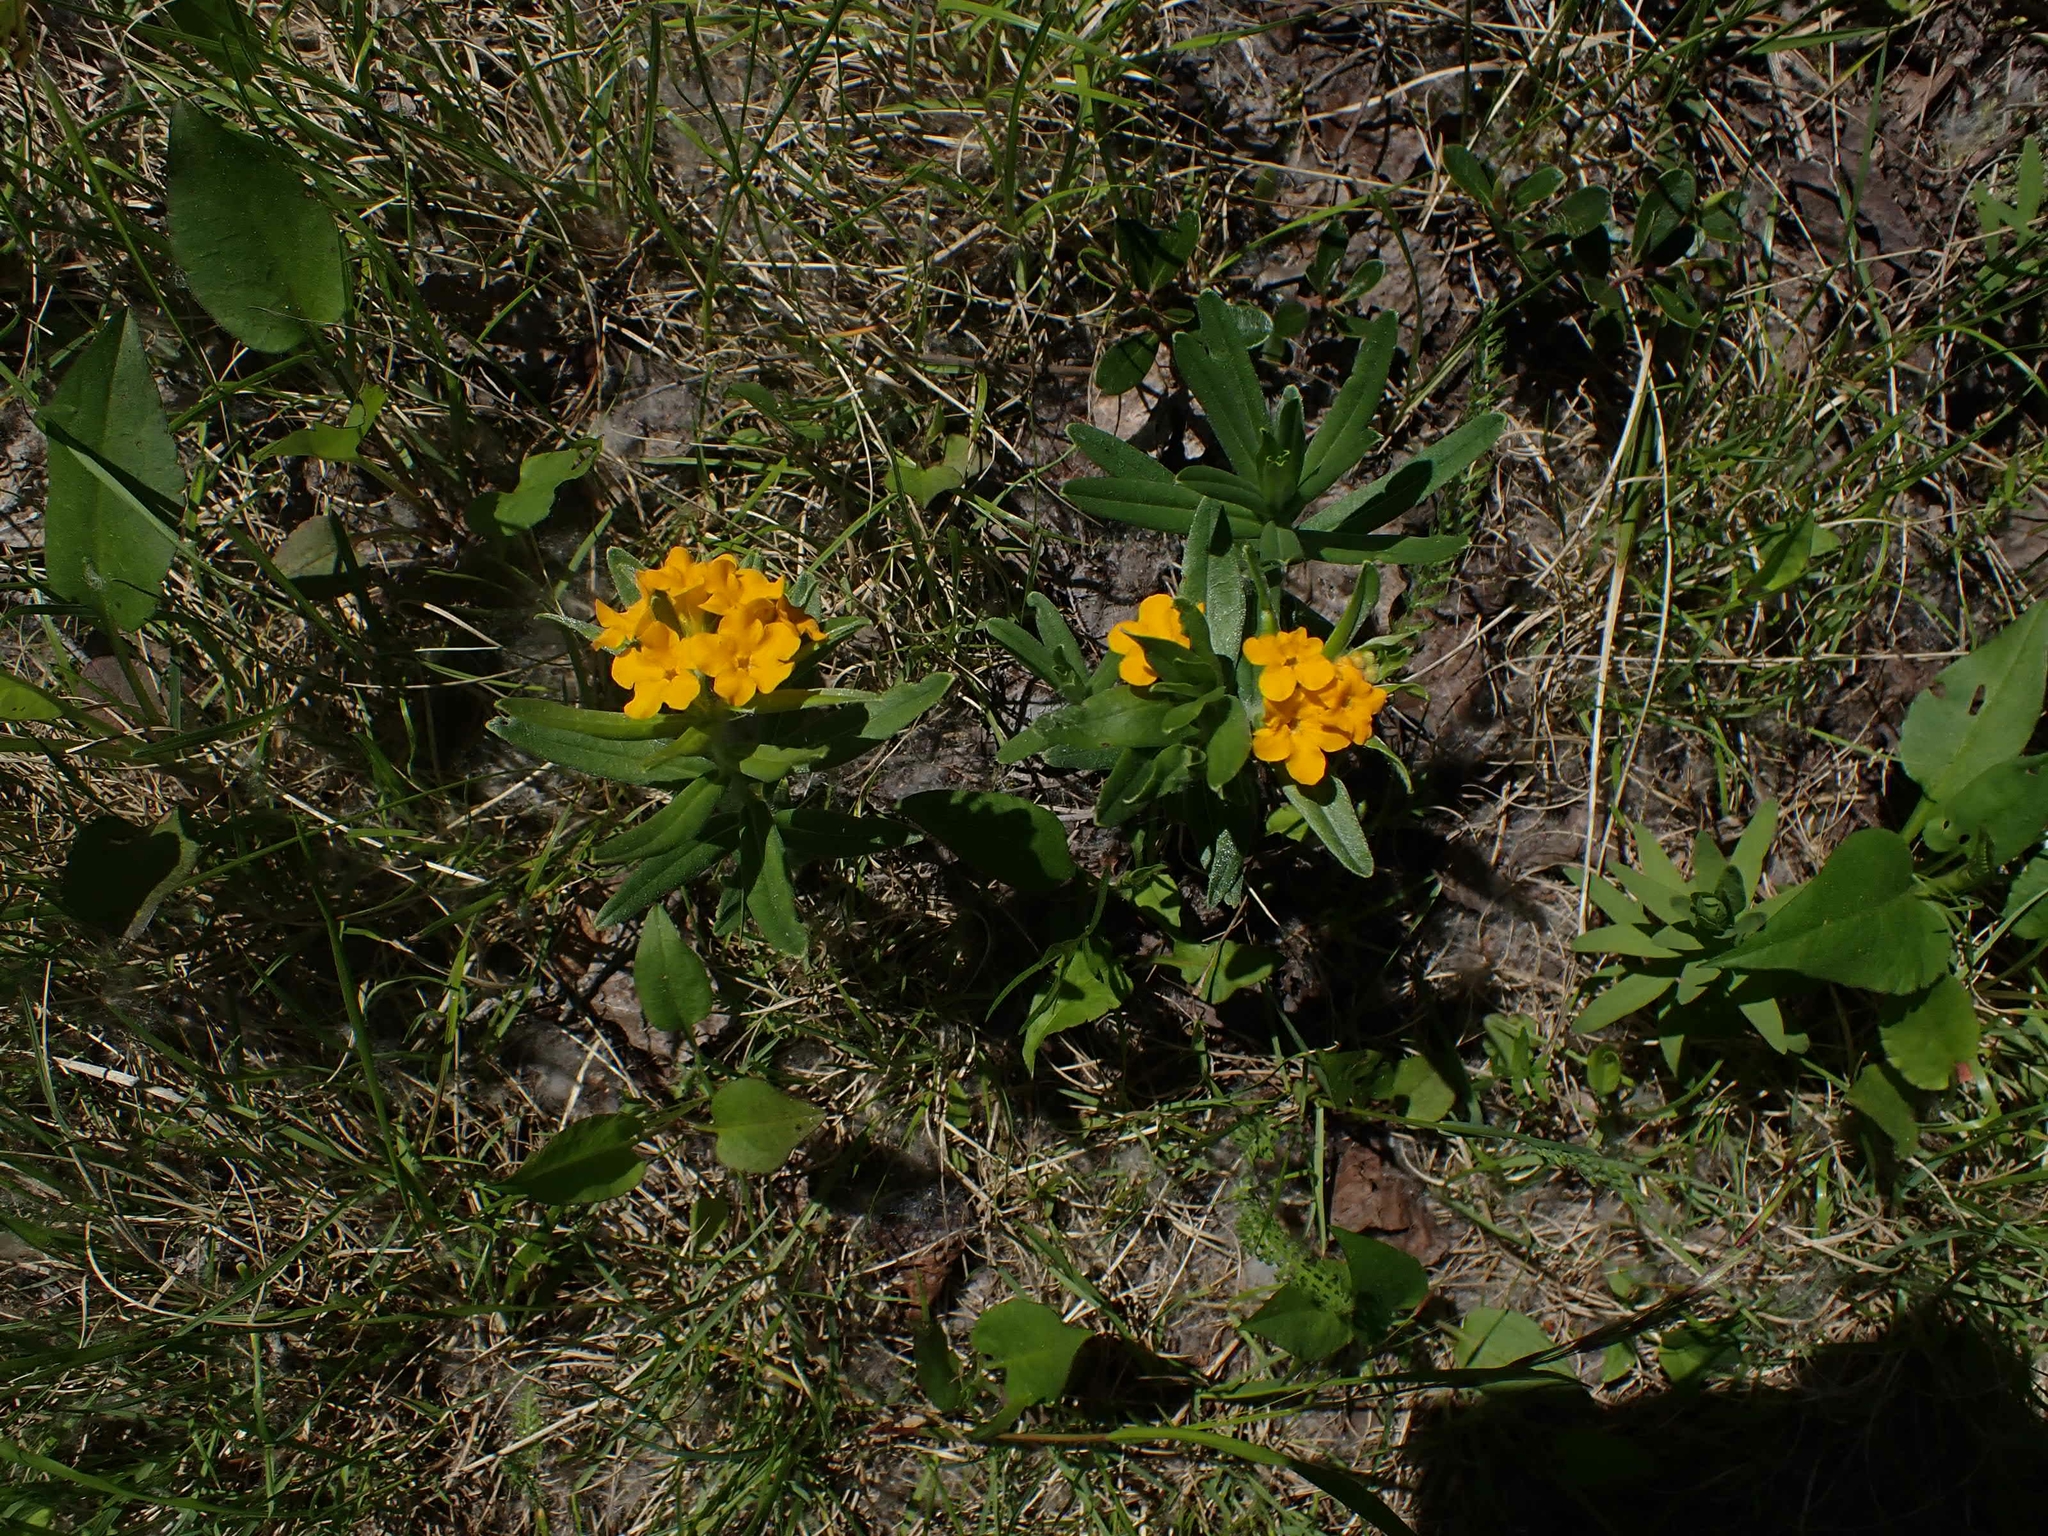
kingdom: Plantae
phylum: Tracheophyta
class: Magnoliopsida
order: Boraginales
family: Boraginaceae
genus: Lithospermum
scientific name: Lithospermum canescens
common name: Hoary puccoon
